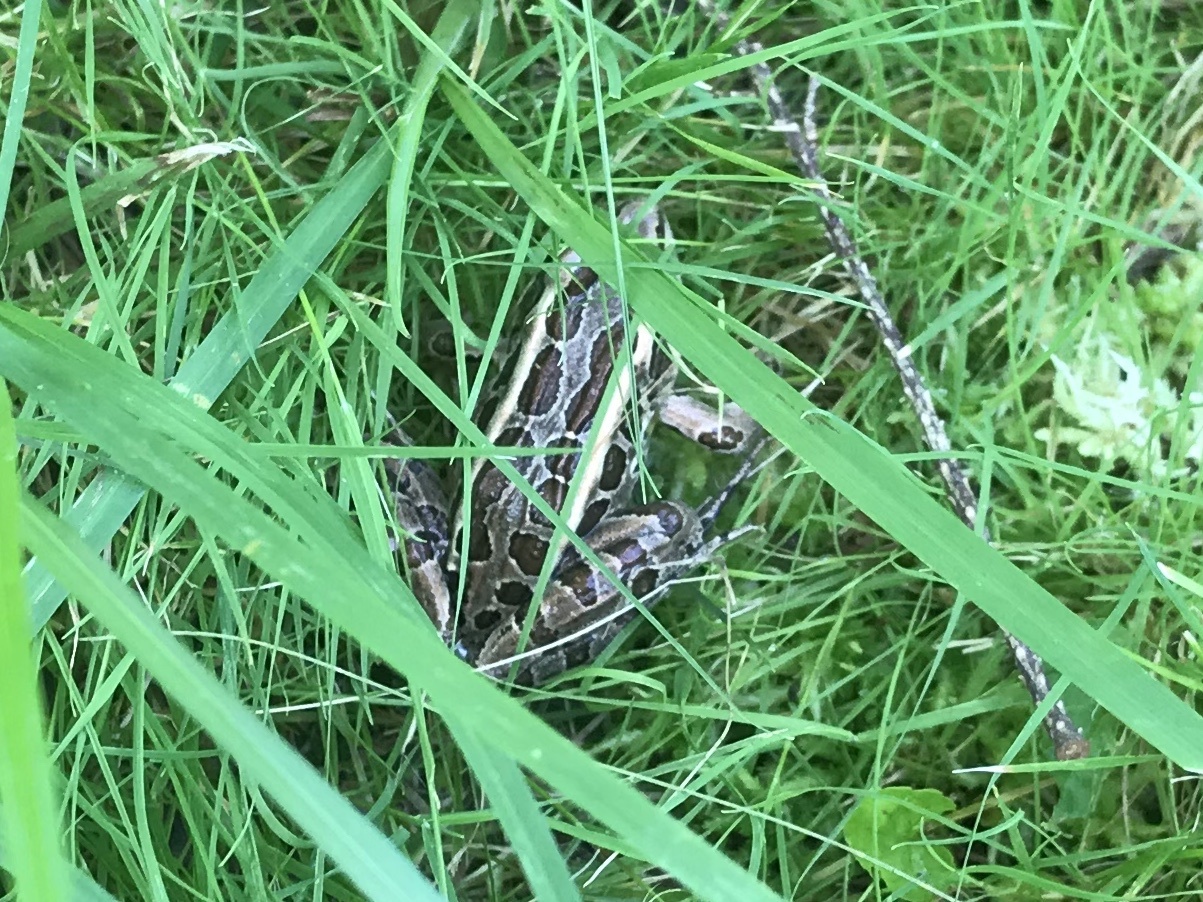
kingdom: Animalia
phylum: Chordata
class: Amphibia
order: Anura
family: Ranidae
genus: Lithobates
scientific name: Lithobates palustris
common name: Pickerel frog
